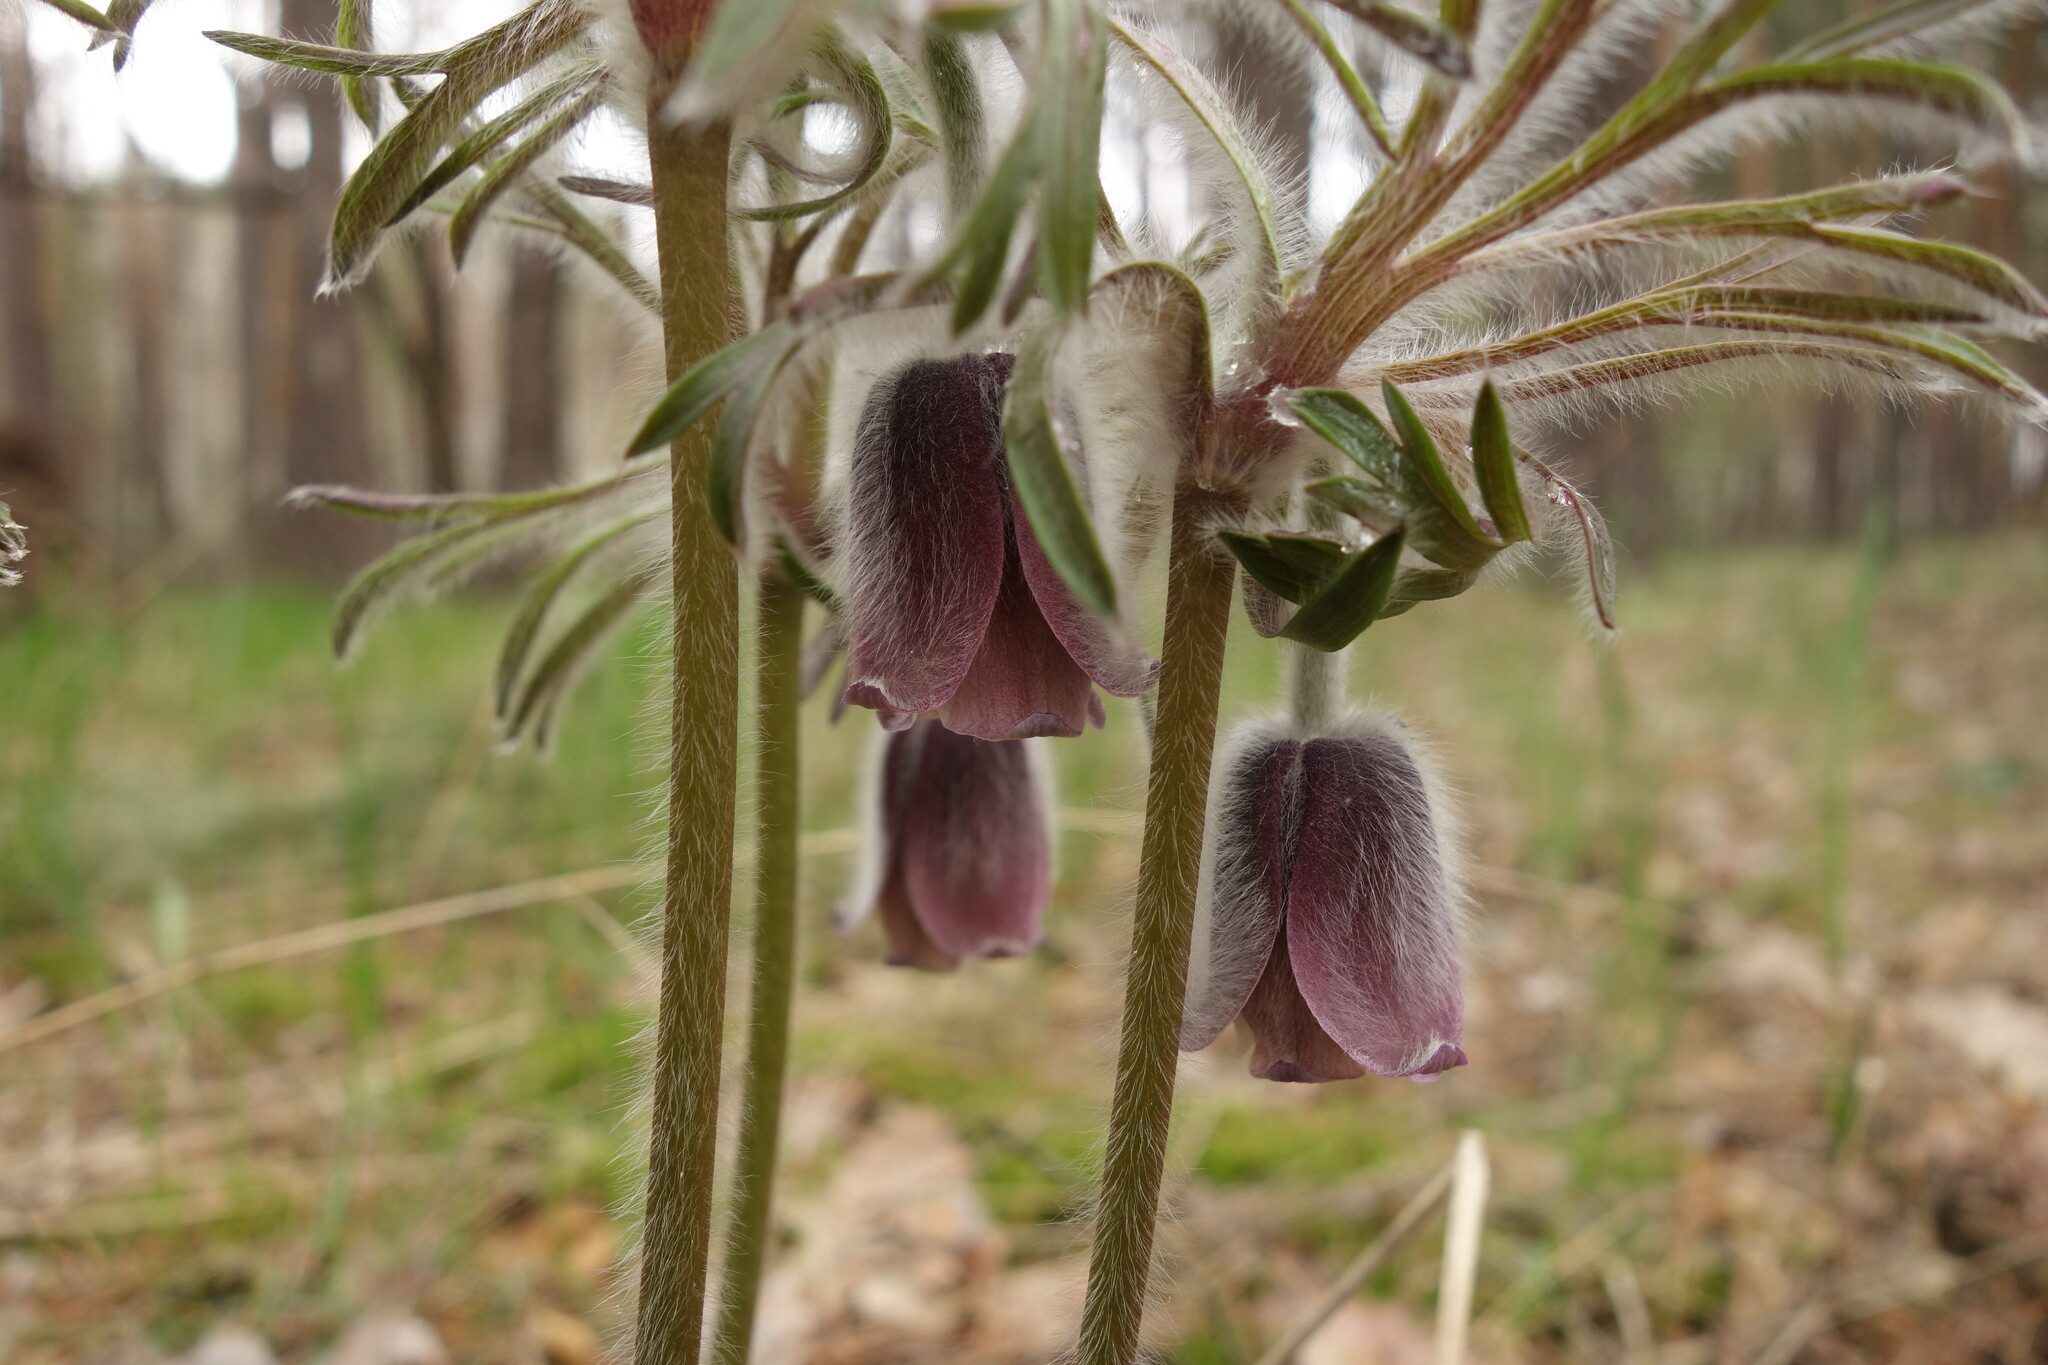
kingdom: Plantae
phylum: Tracheophyta
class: Magnoliopsida
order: Ranunculales
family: Ranunculaceae
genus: Pulsatilla
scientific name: Pulsatilla pratensis
